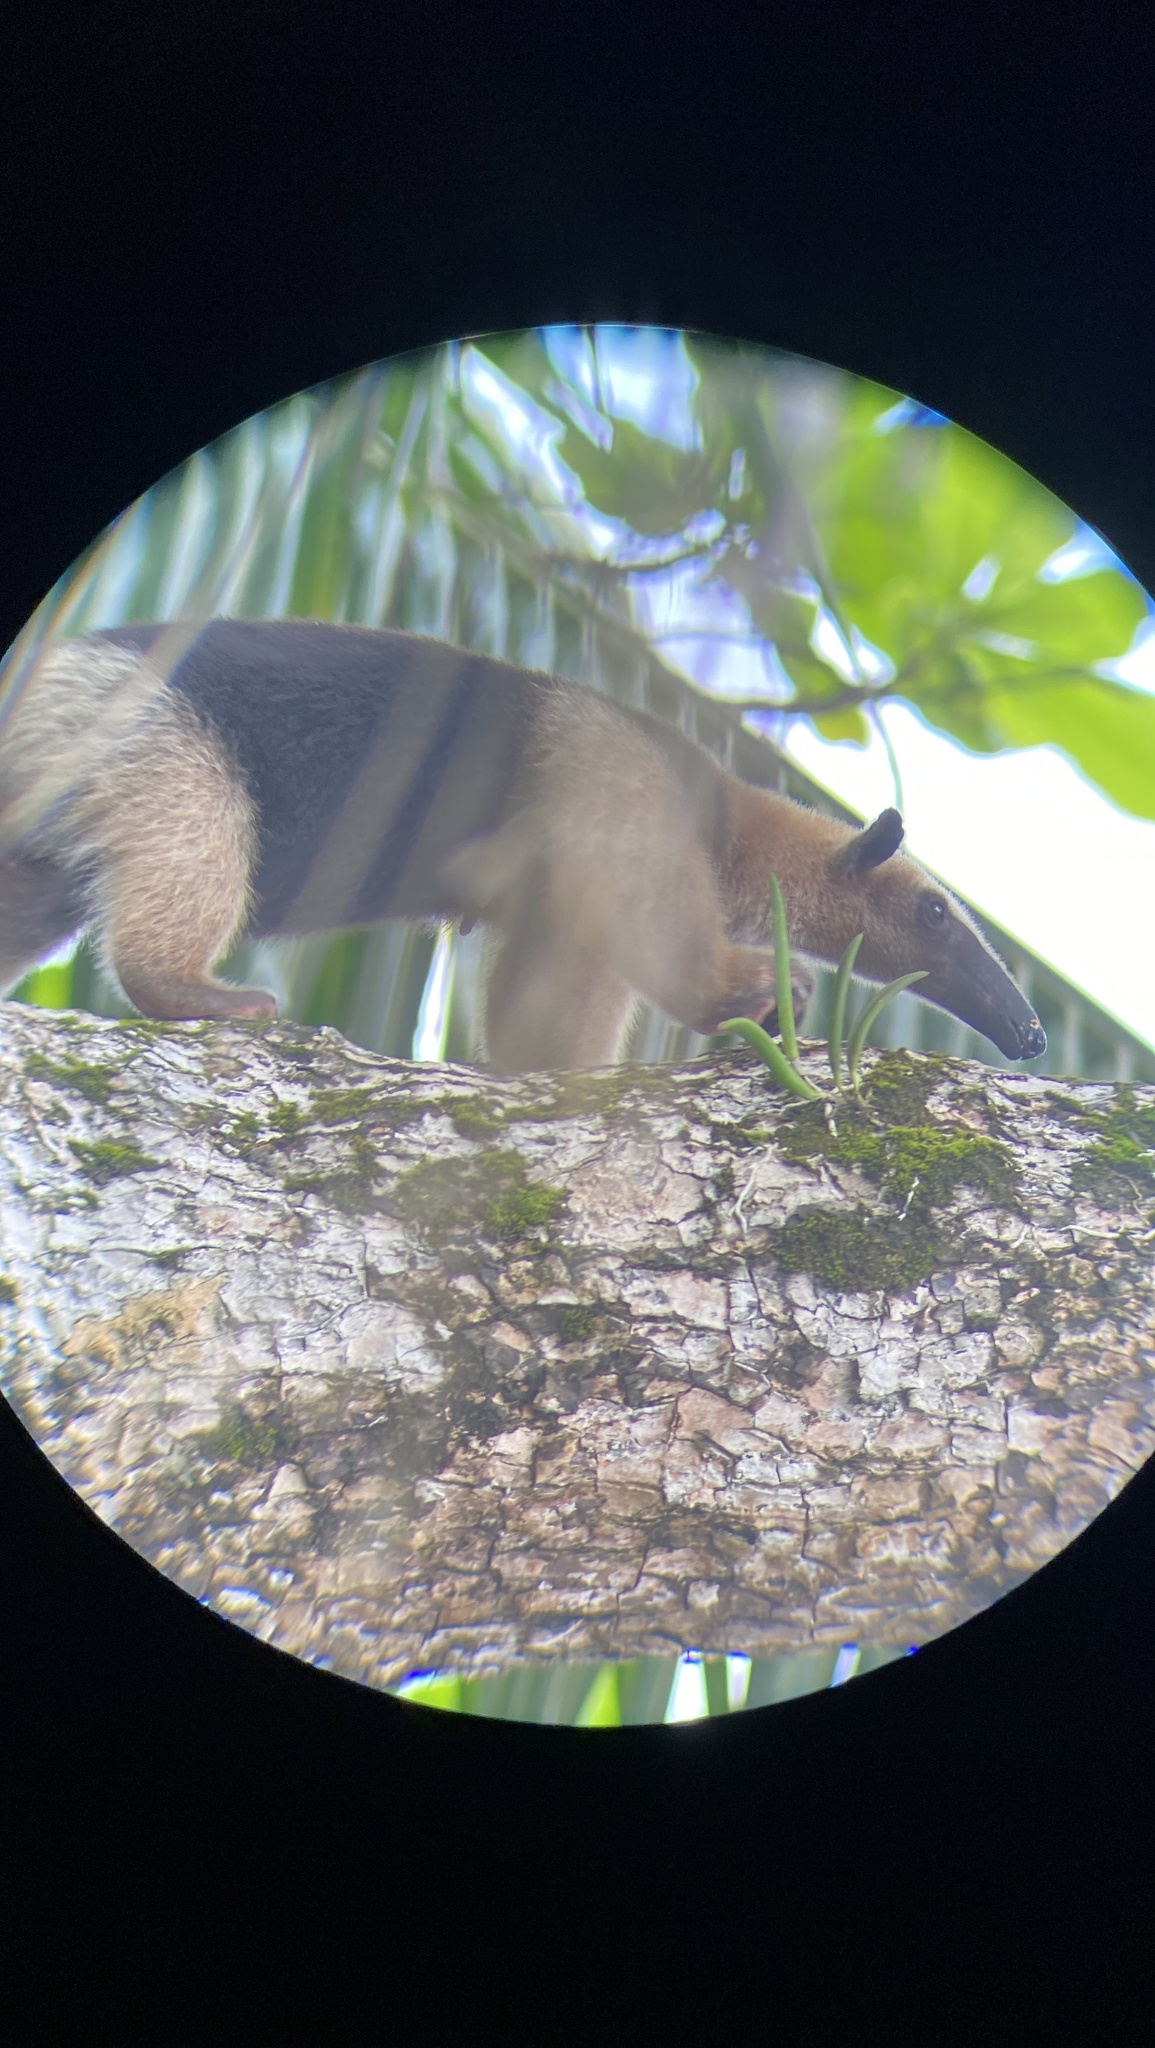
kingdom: Animalia
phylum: Chordata
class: Mammalia
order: Pilosa
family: Myrmecophagidae
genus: Tamandua
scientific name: Tamandua mexicana
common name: Northern tamandua
